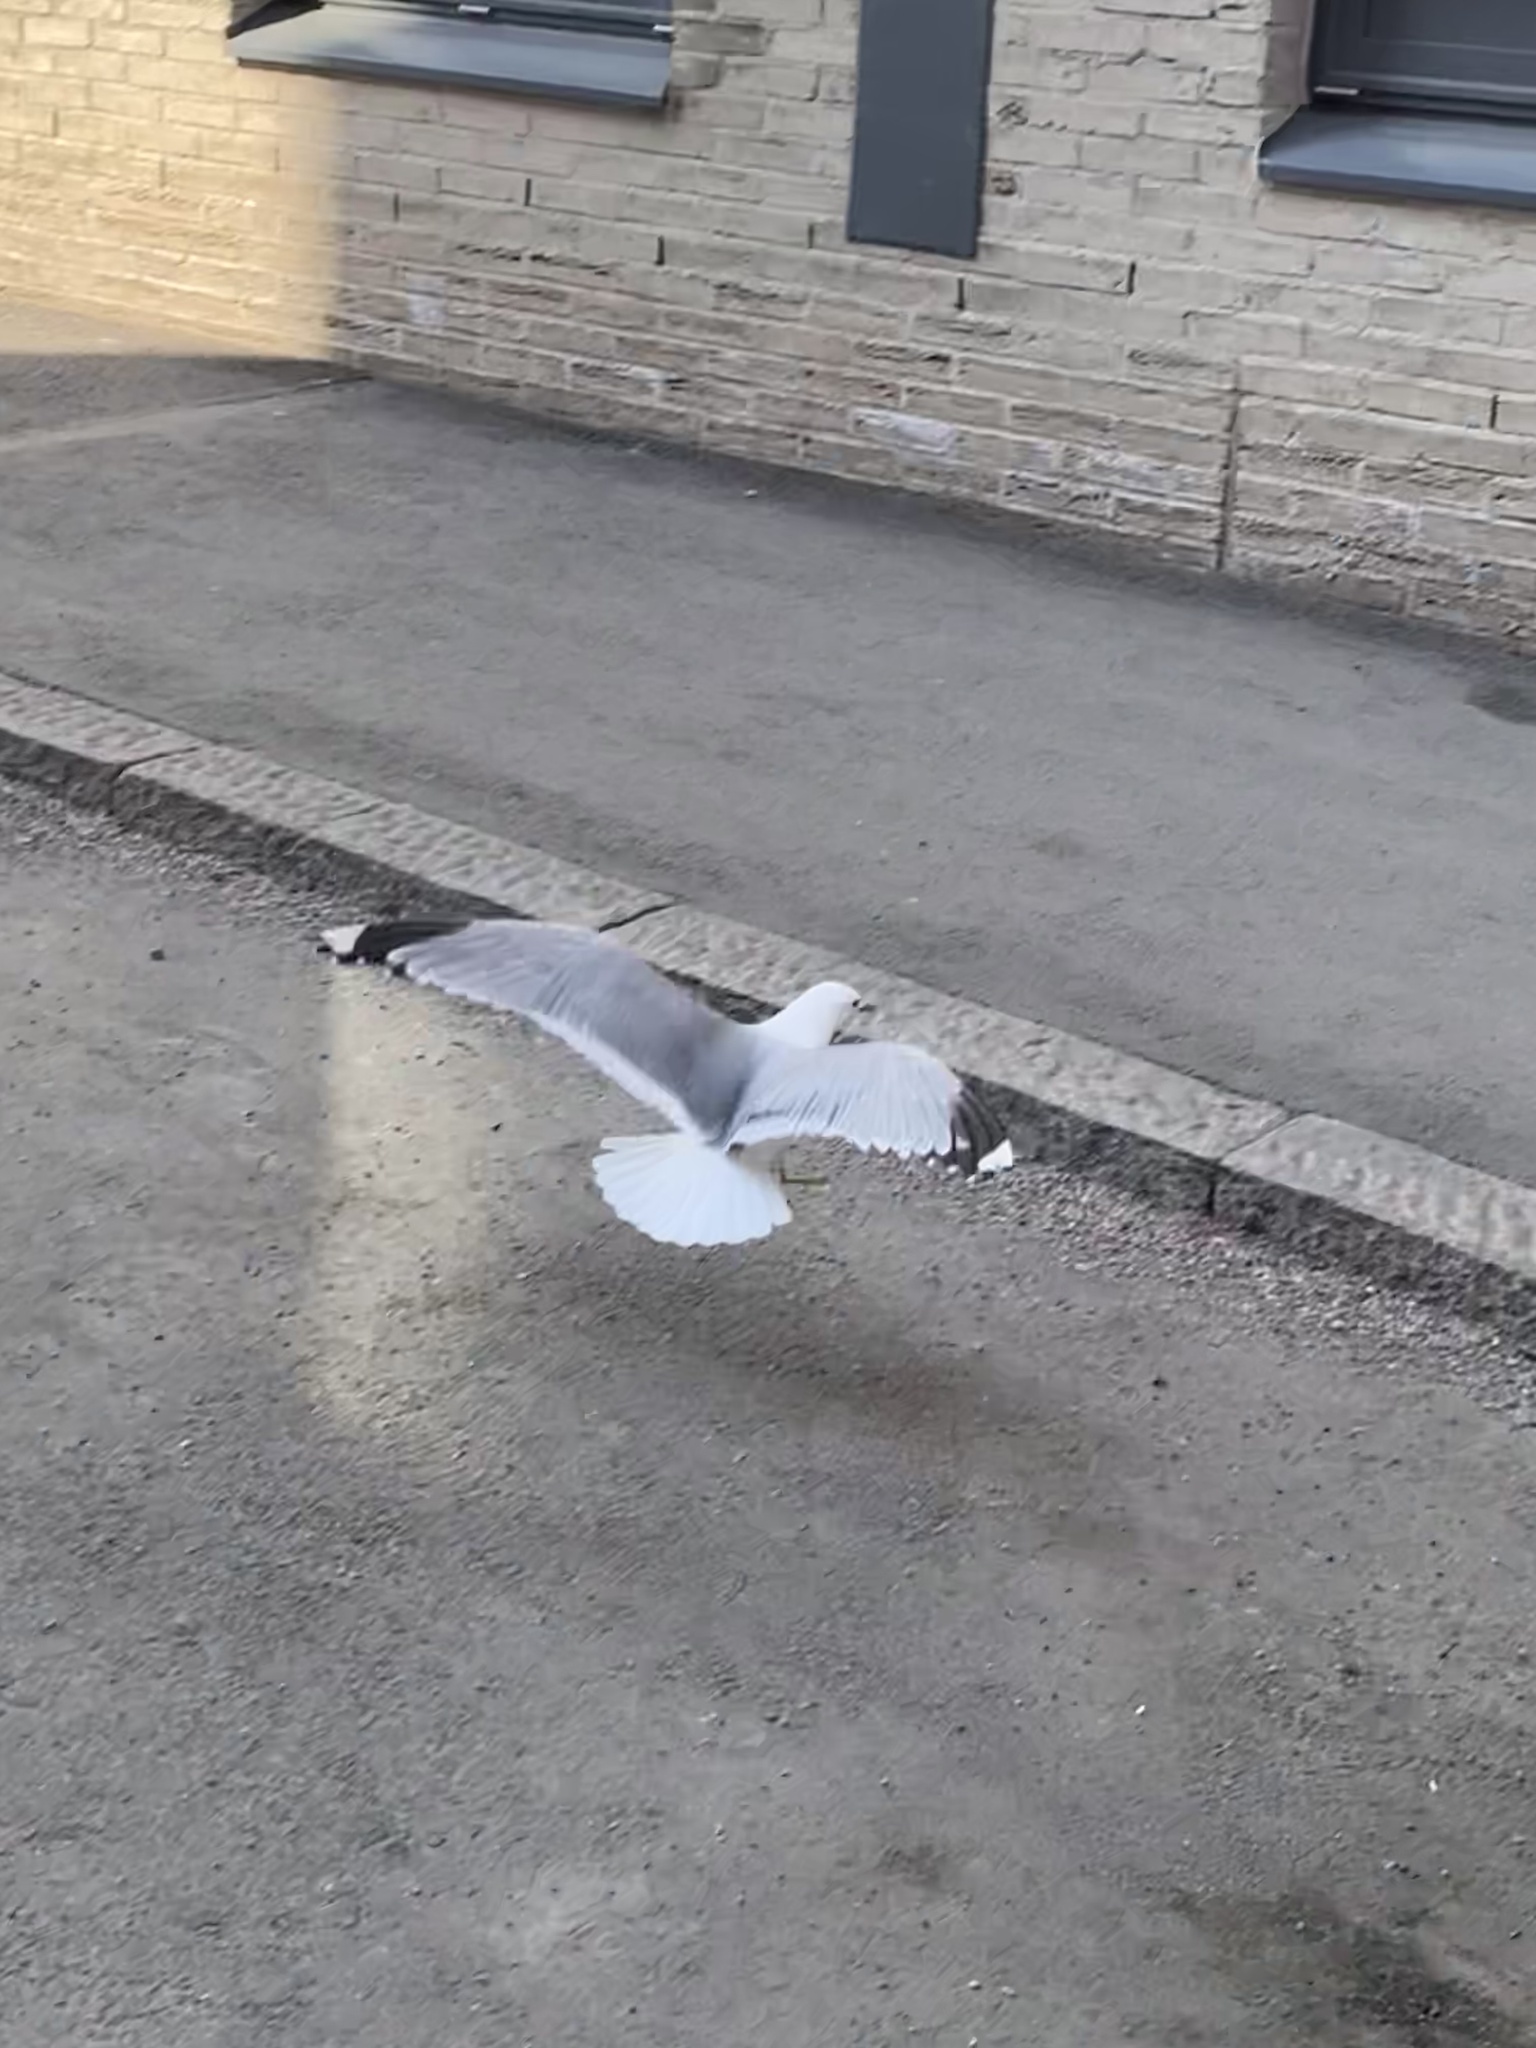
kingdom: Animalia
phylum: Chordata
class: Aves
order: Charadriiformes
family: Laridae
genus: Larus
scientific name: Larus canus
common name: Mew gull
